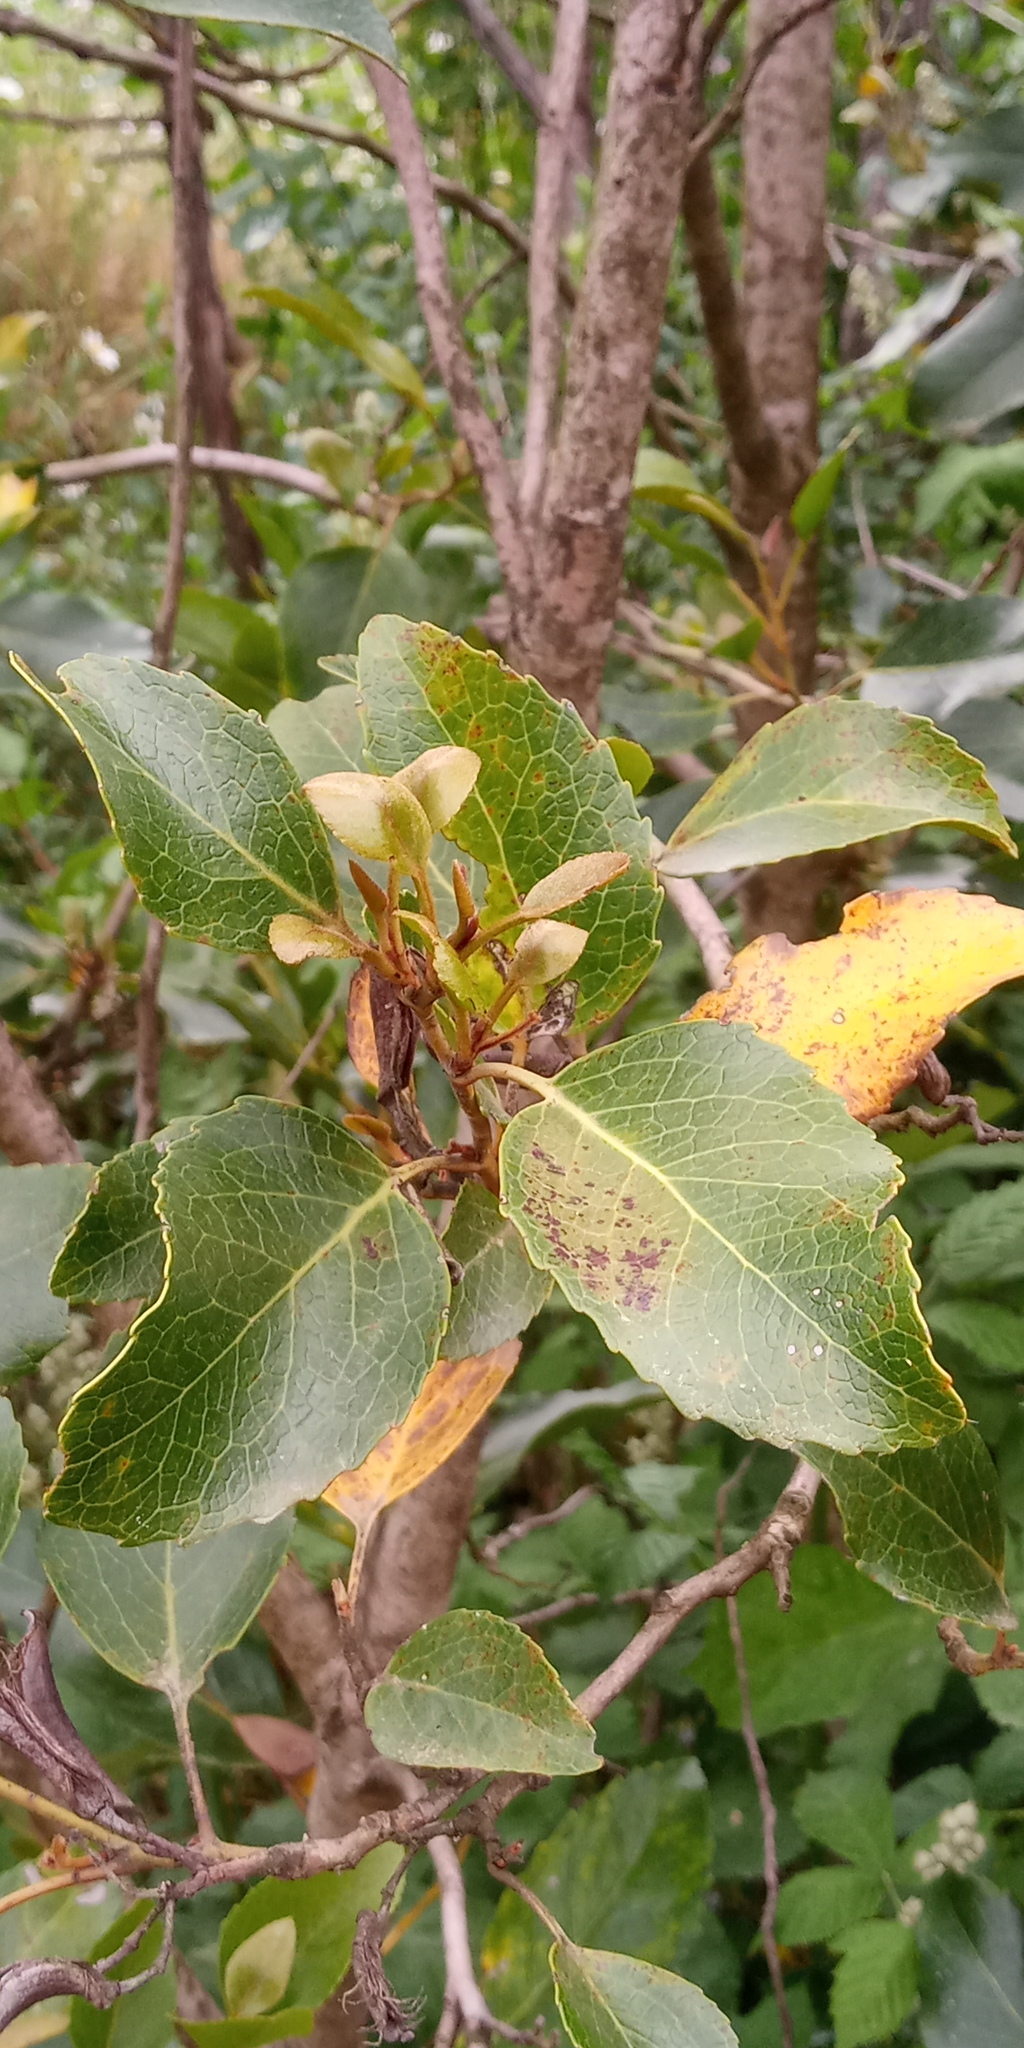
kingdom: Plantae
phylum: Tracheophyta
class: Magnoliopsida
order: Proteales
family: Proteaceae
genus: Lomatia
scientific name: Lomatia hirsuta
